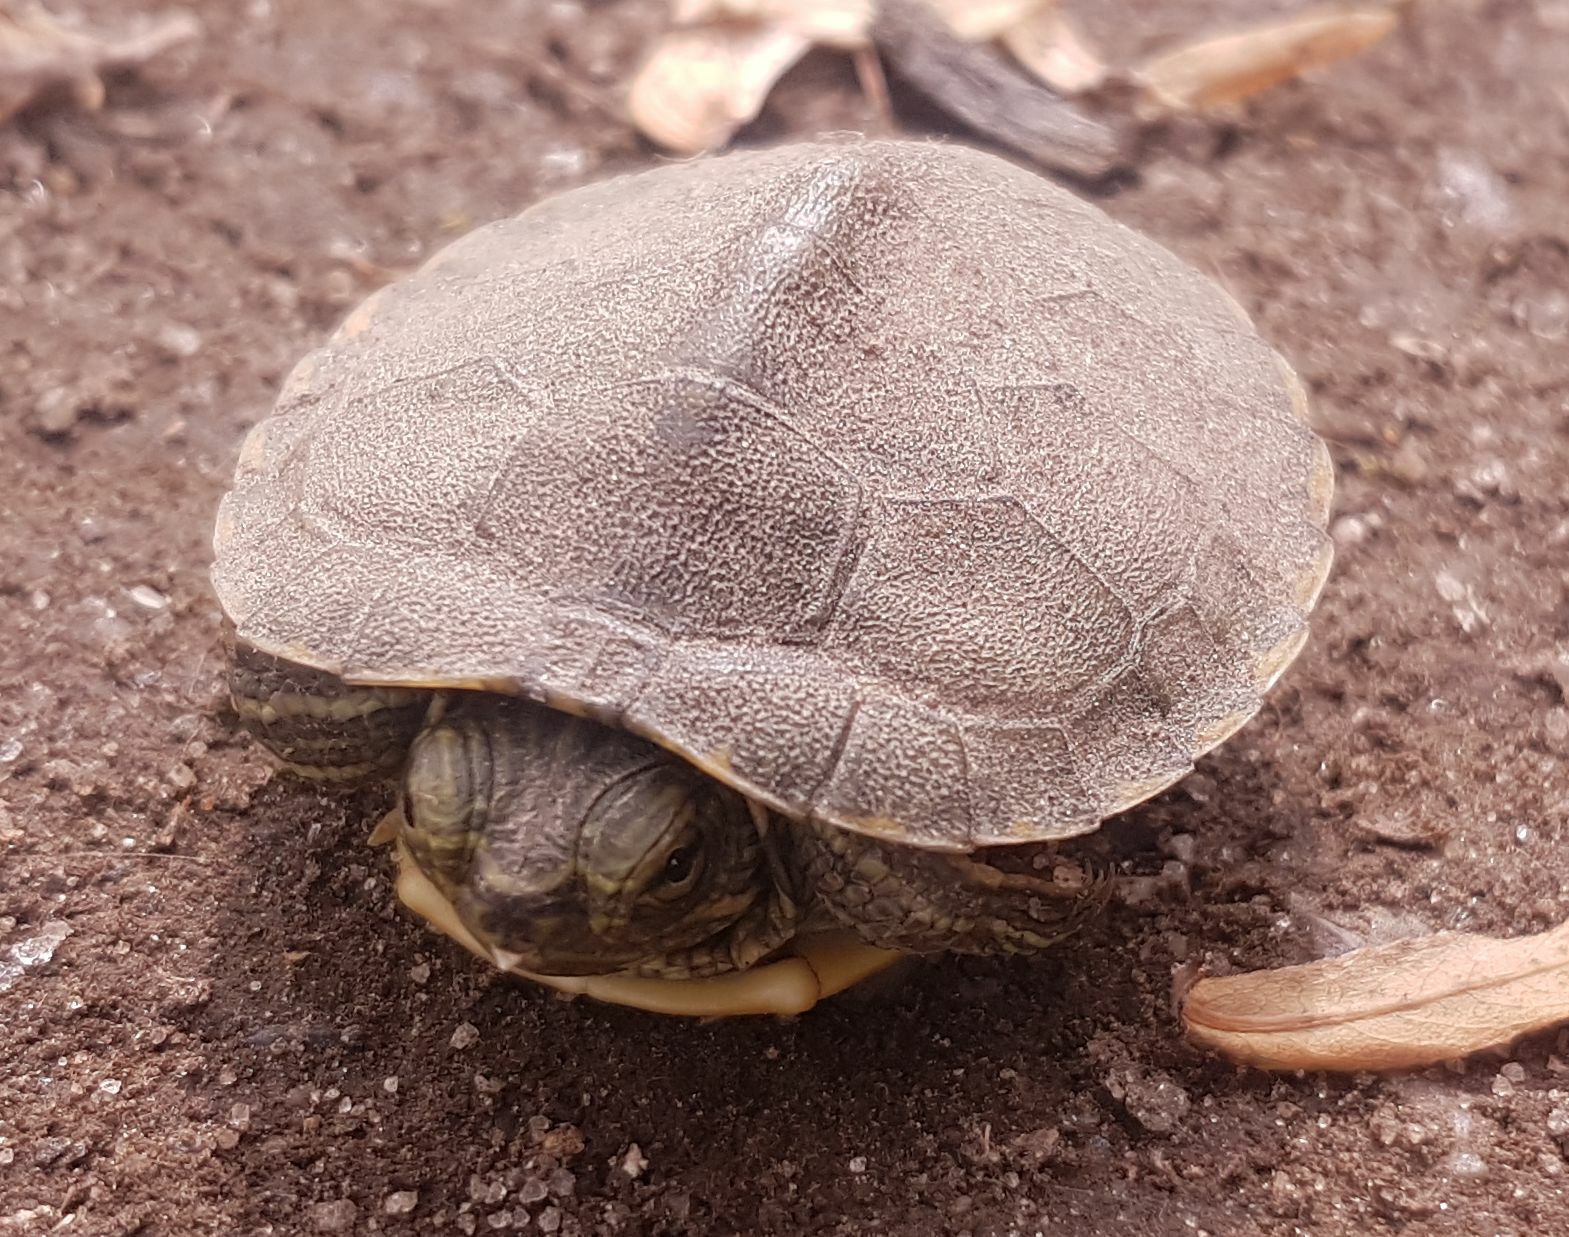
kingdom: Animalia
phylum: Chordata
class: Testudines
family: Emydidae
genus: Trachemys
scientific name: Trachemys scripta
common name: Slider
